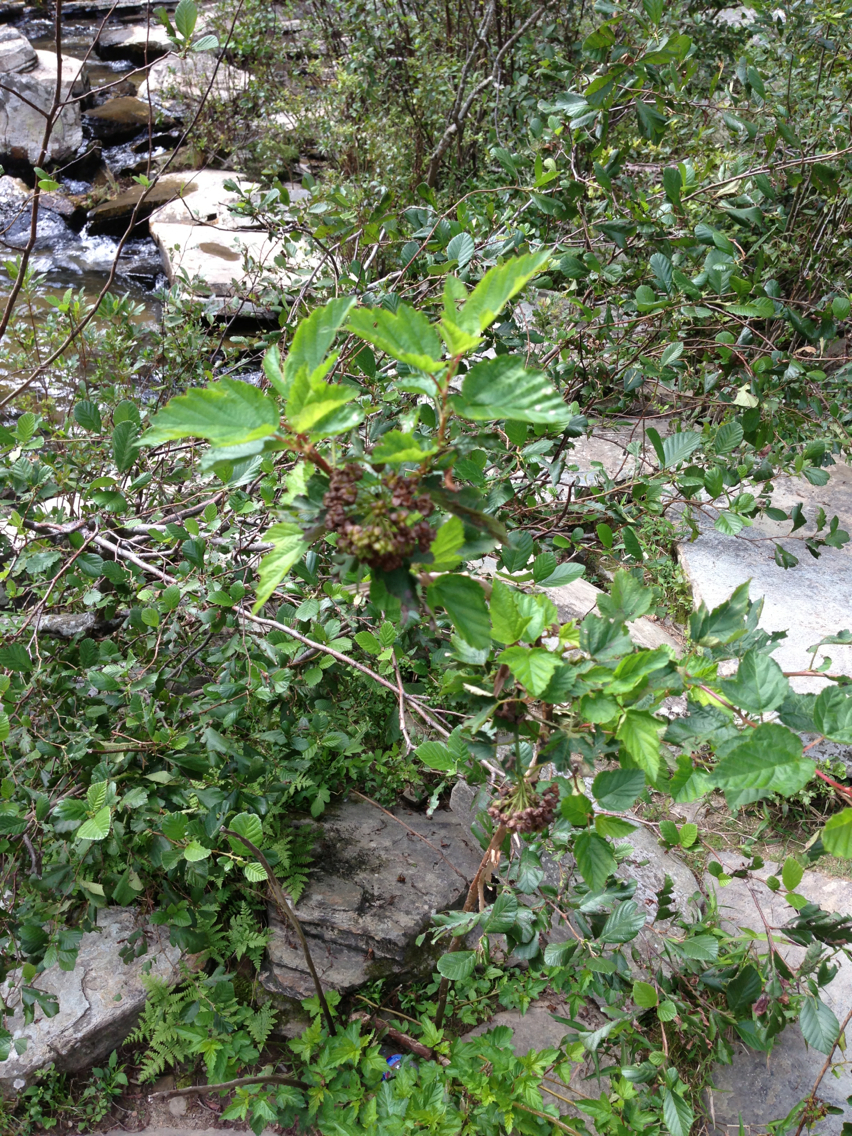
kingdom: Plantae
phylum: Tracheophyta
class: Magnoliopsida
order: Rosales
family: Rosaceae
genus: Physocarpus
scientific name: Physocarpus opulifolius
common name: Ninebark
